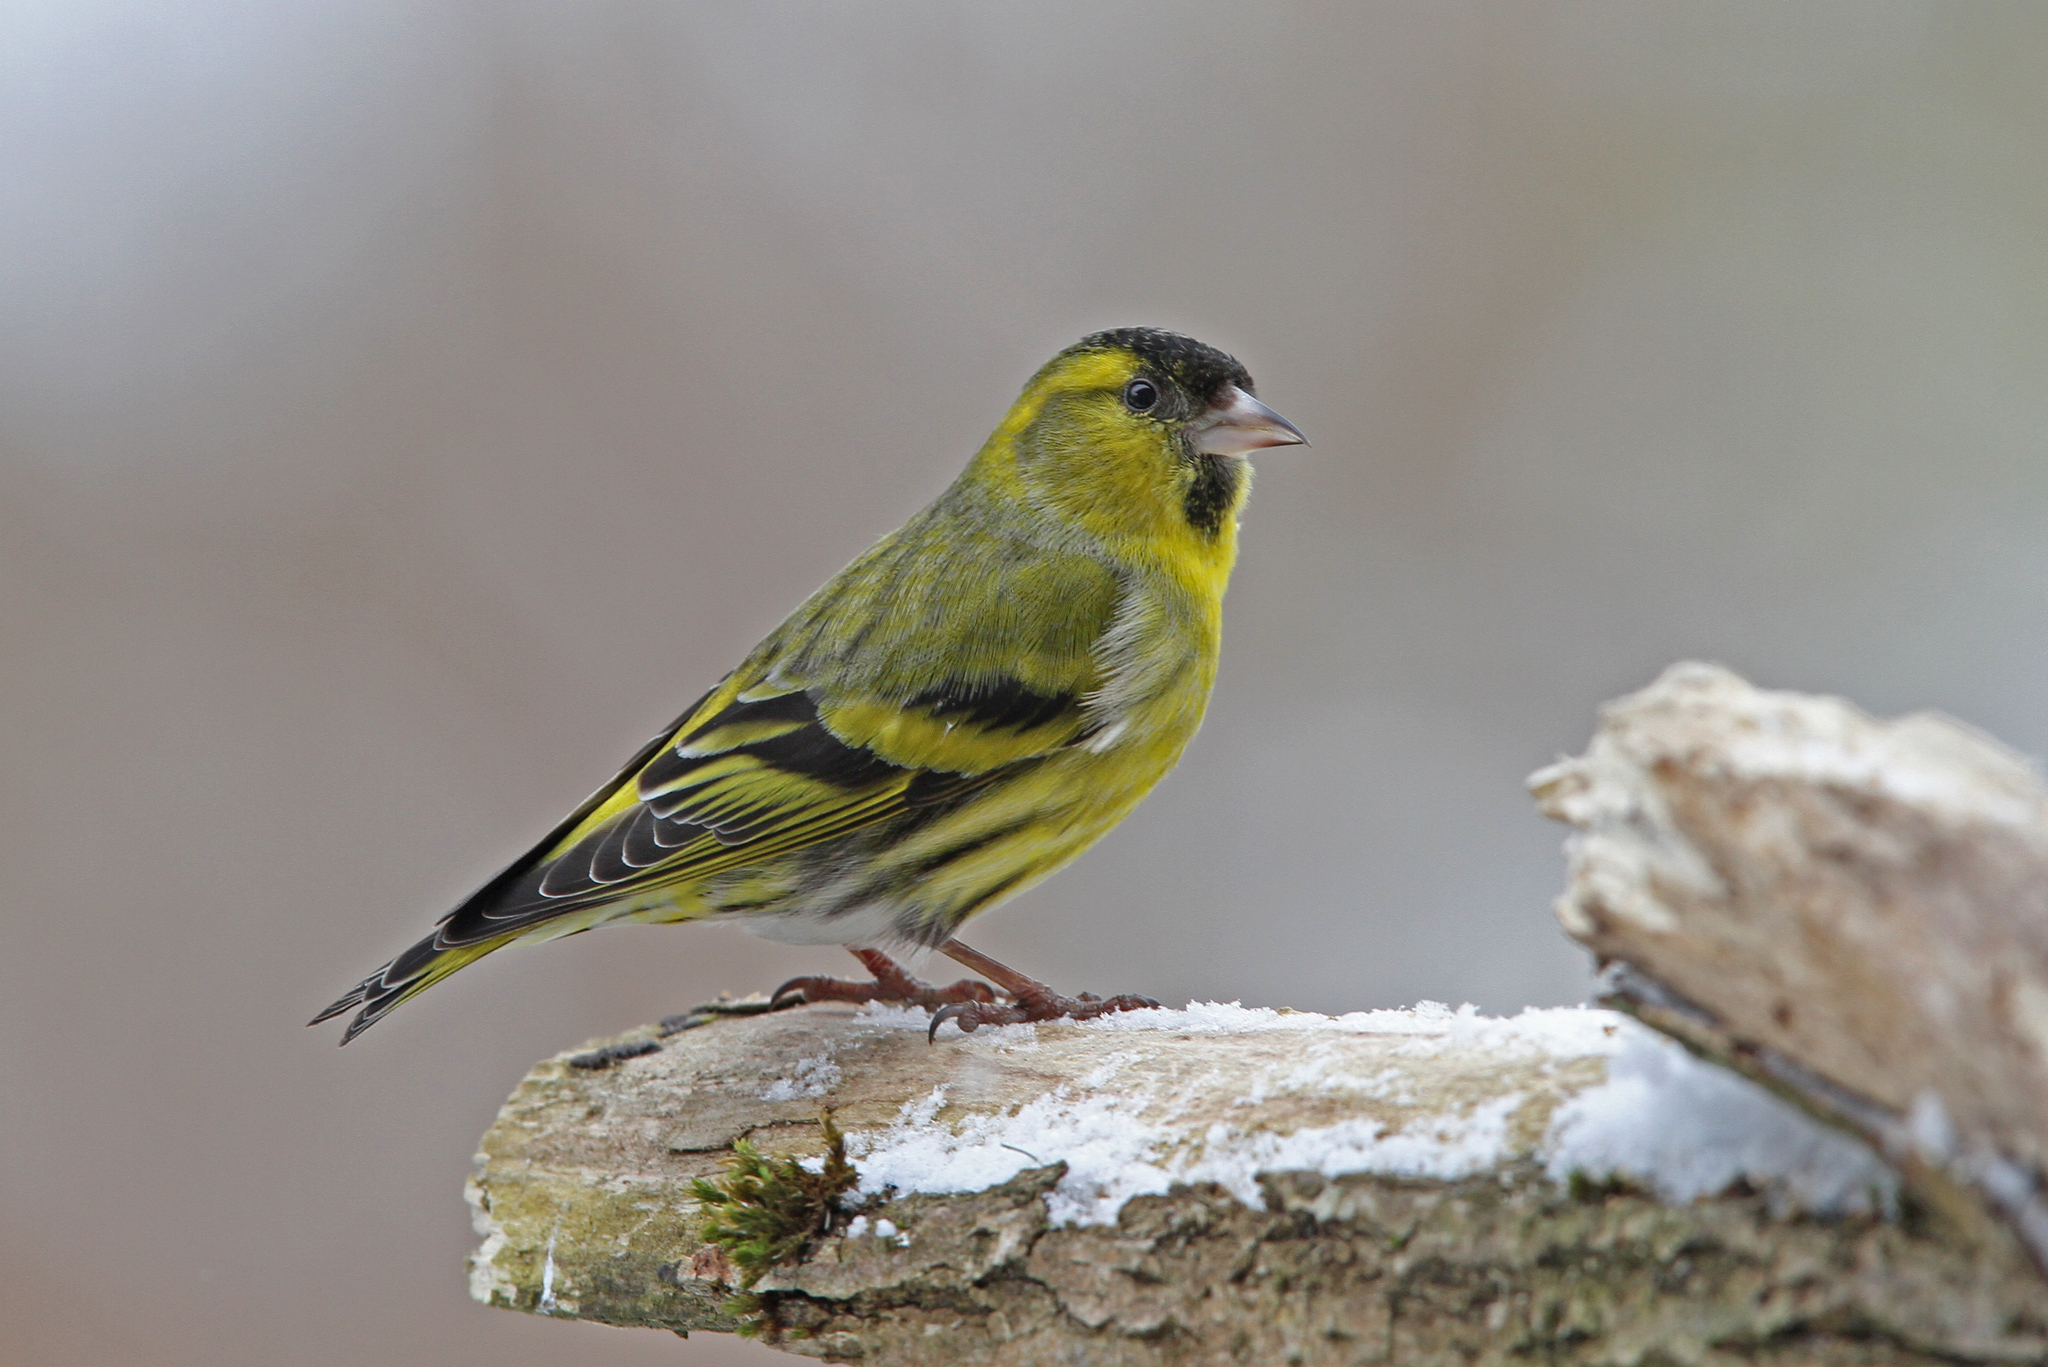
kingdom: Animalia
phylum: Chordata
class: Aves
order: Passeriformes
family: Fringillidae
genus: Spinus
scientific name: Spinus spinus
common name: Eurasian siskin
